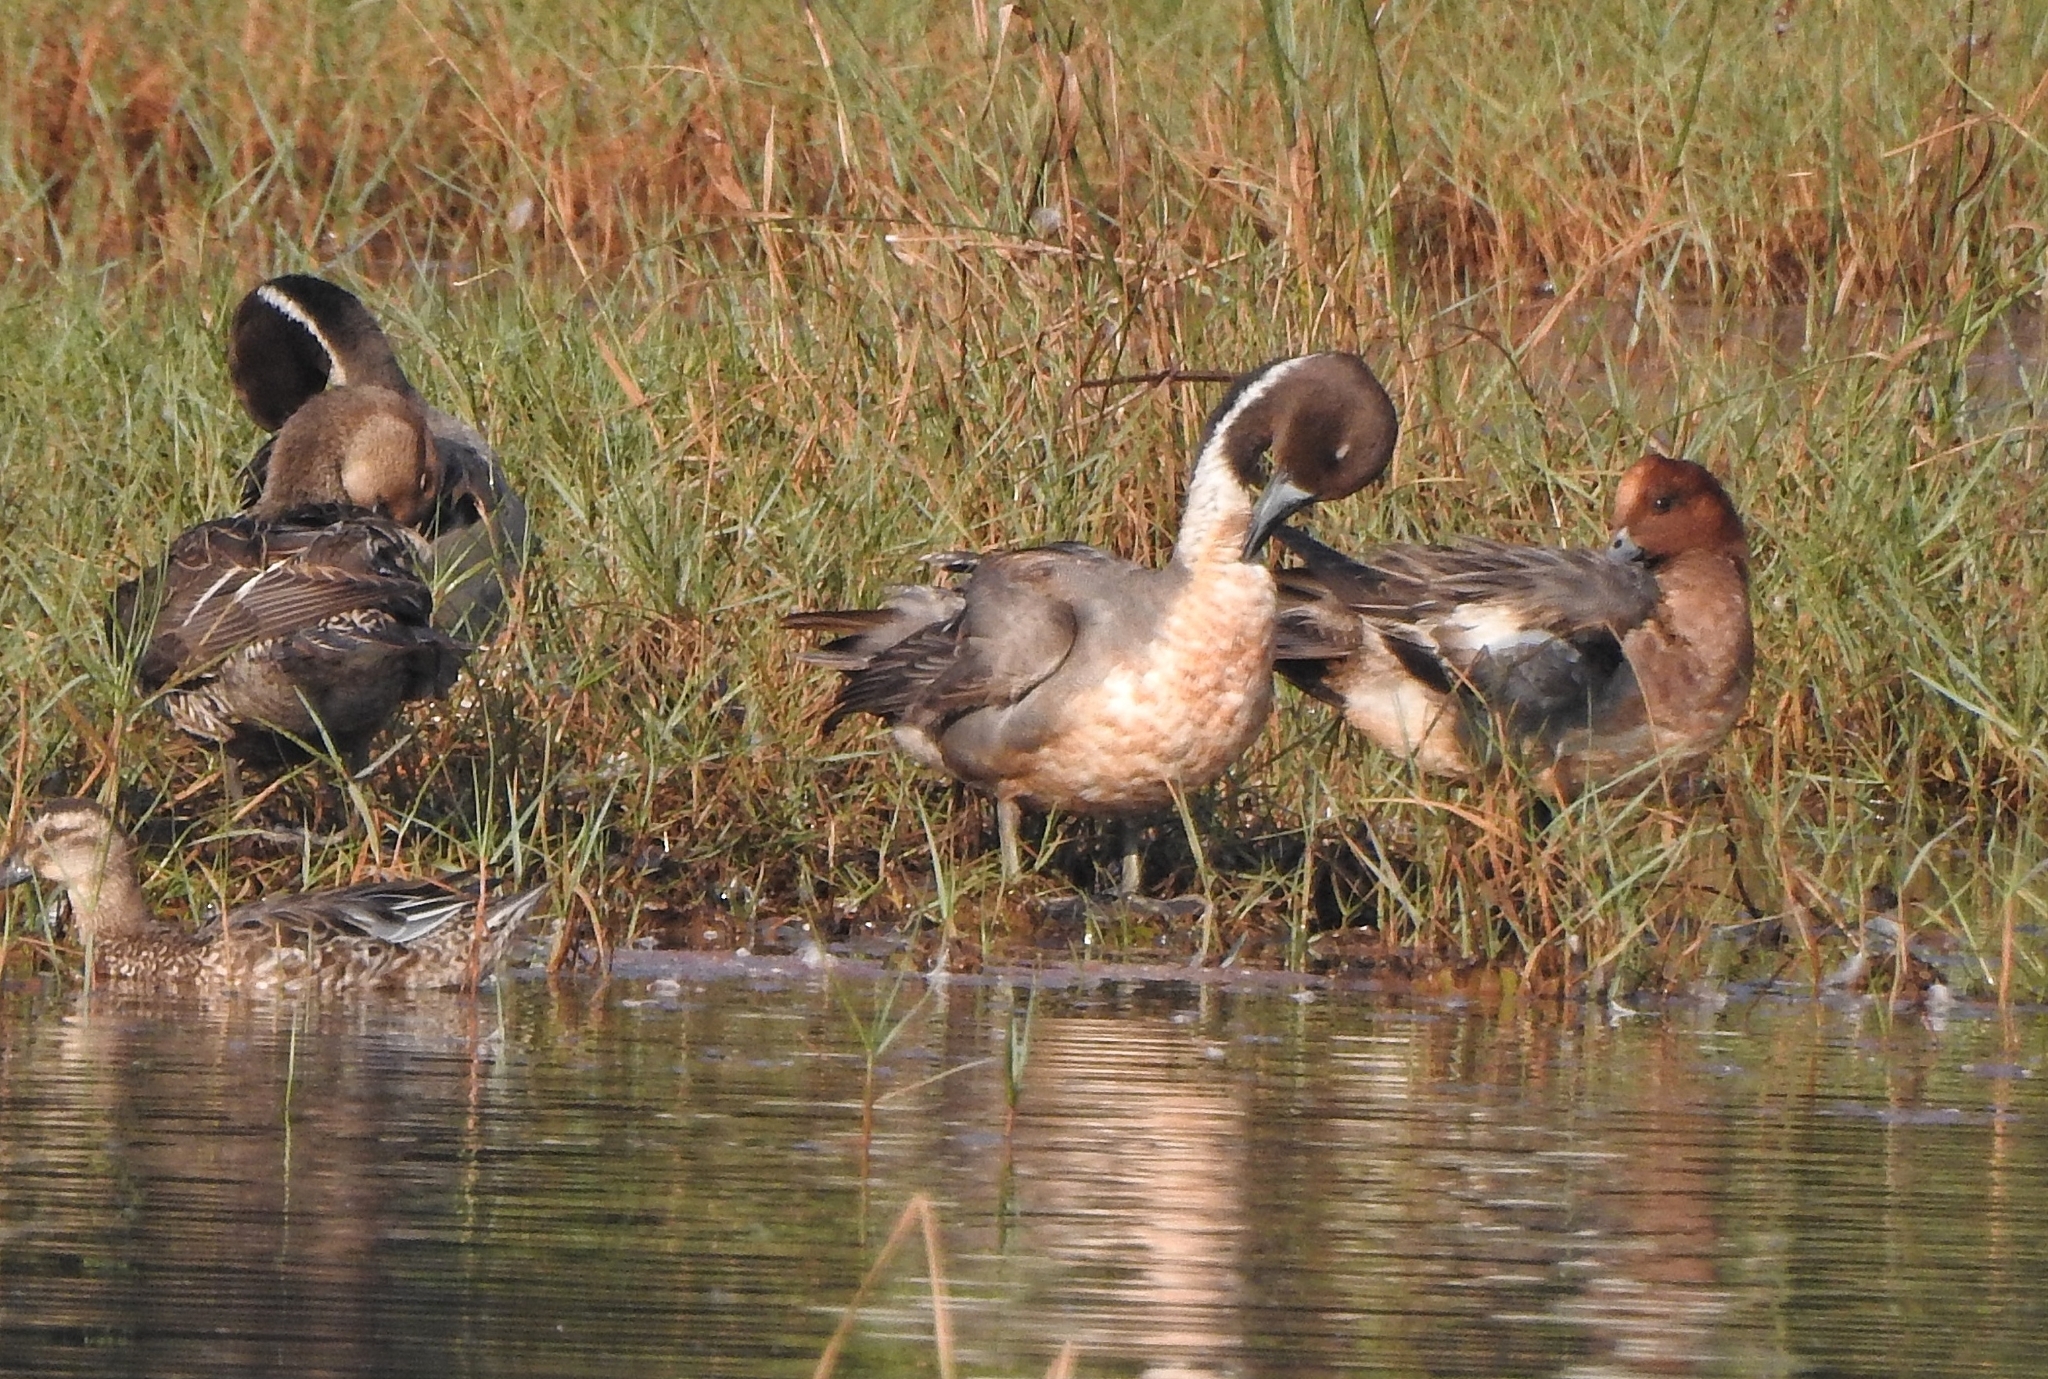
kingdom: Animalia
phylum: Chordata
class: Aves
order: Anseriformes
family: Anatidae
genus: Mareca
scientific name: Mareca penelope
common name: Eurasian wigeon
